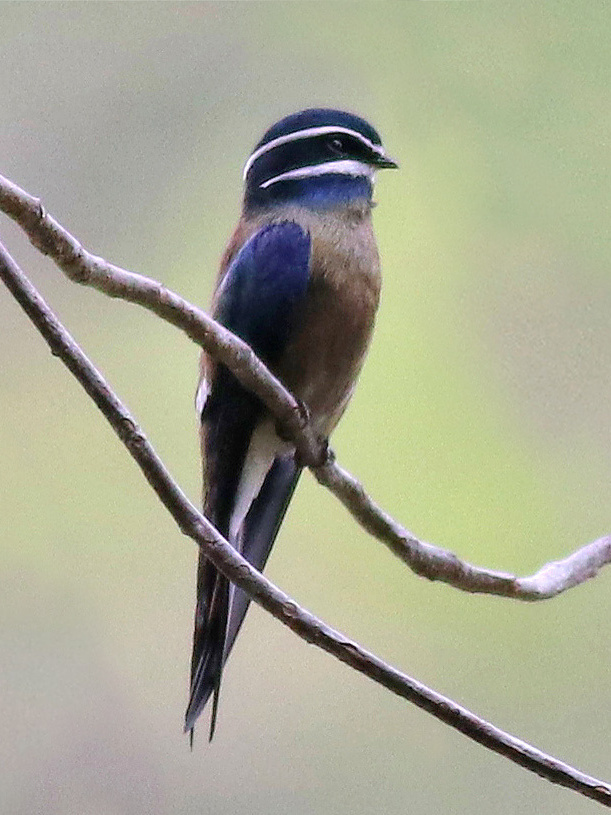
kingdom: Animalia
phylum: Chordata
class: Aves
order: Apodiformes
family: Hemiprocnidae
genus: Hemiprocne
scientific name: Hemiprocne comata
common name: Whiskered treeswift
